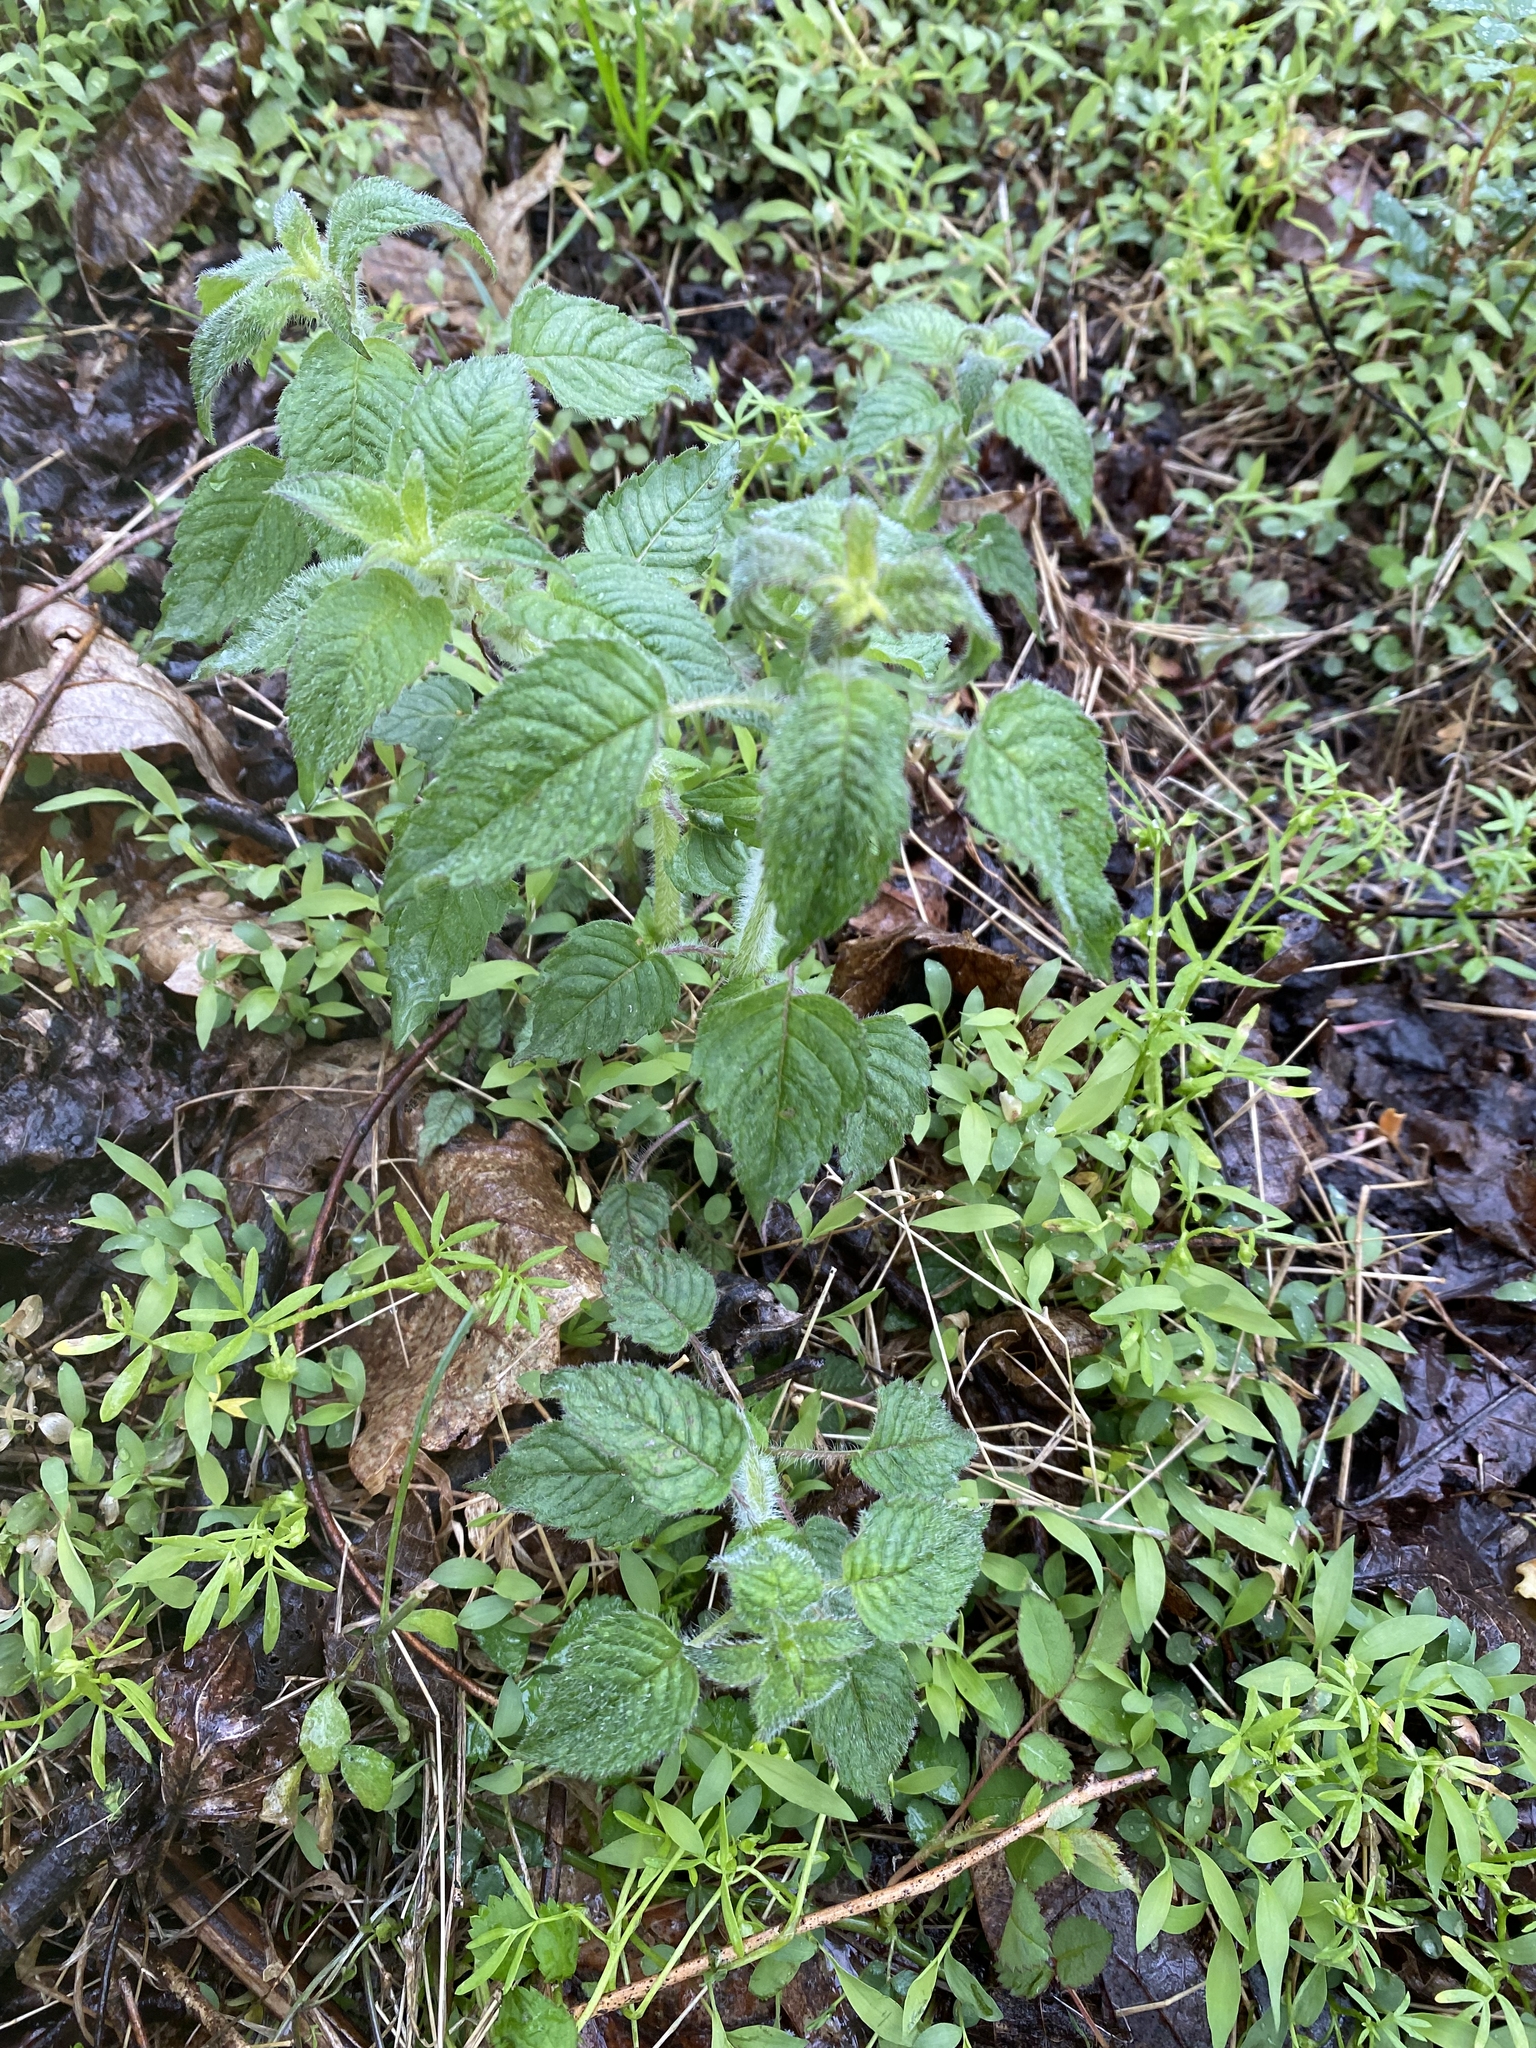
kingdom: Plantae
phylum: Tracheophyta
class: Magnoliopsida
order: Lamiales
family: Lamiaceae
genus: Blephilia
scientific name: Blephilia hirsuta
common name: Hairy blephilia
